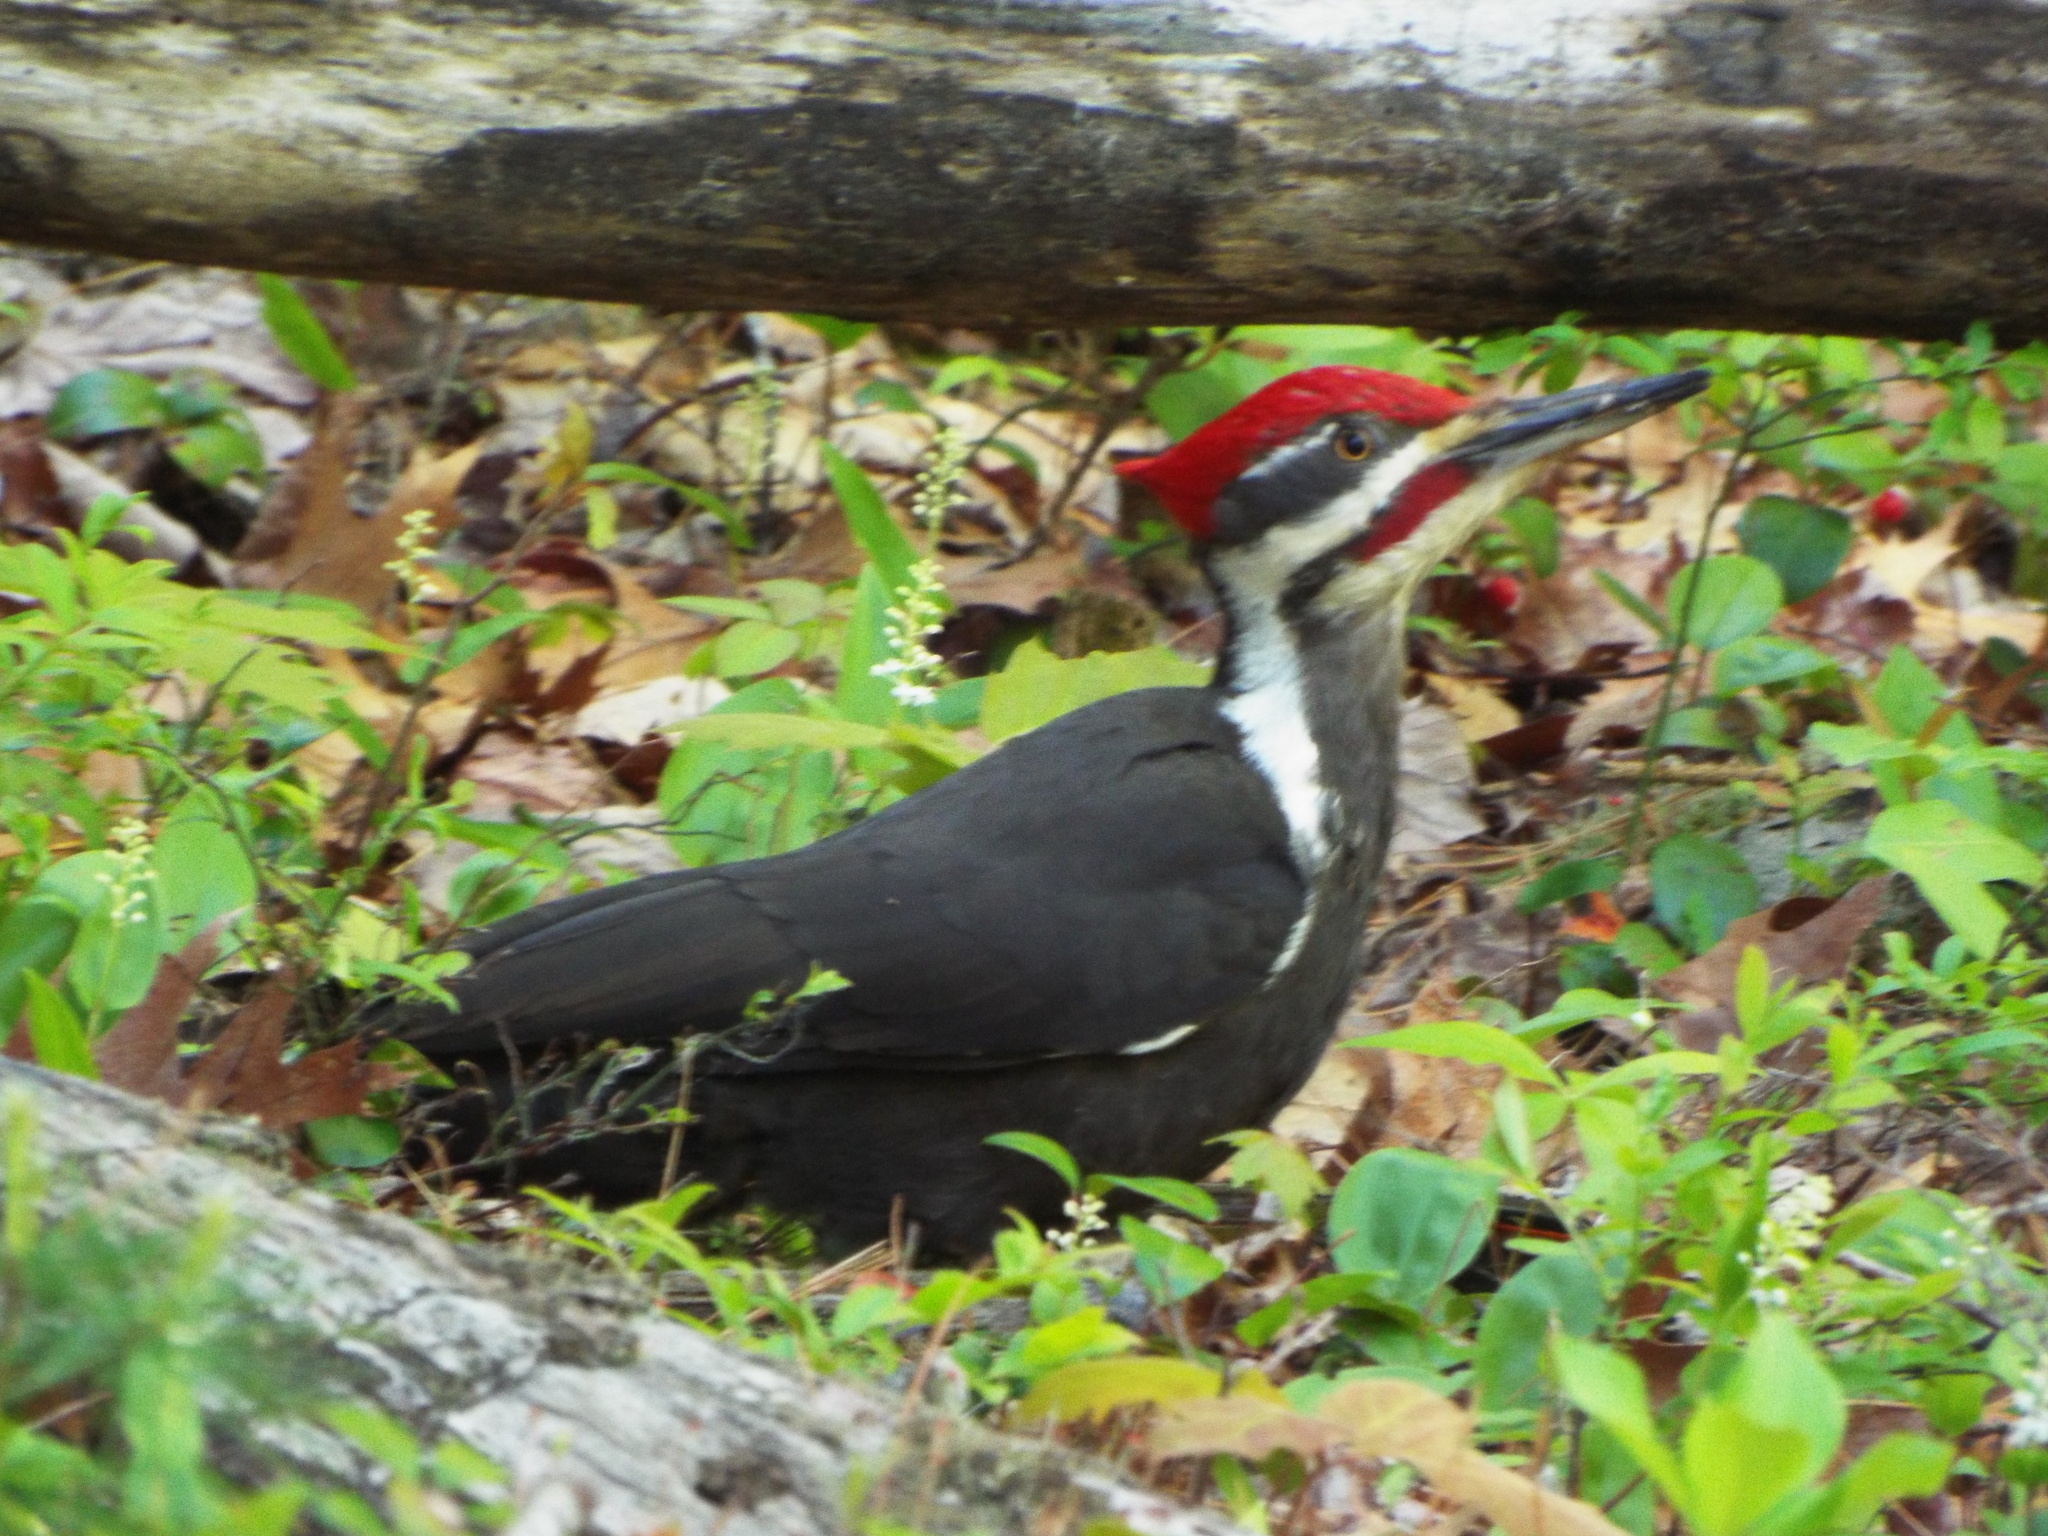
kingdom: Animalia
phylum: Chordata
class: Aves
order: Piciformes
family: Picidae
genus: Dryocopus
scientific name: Dryocopus pileatus
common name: Pileated woodpecker
